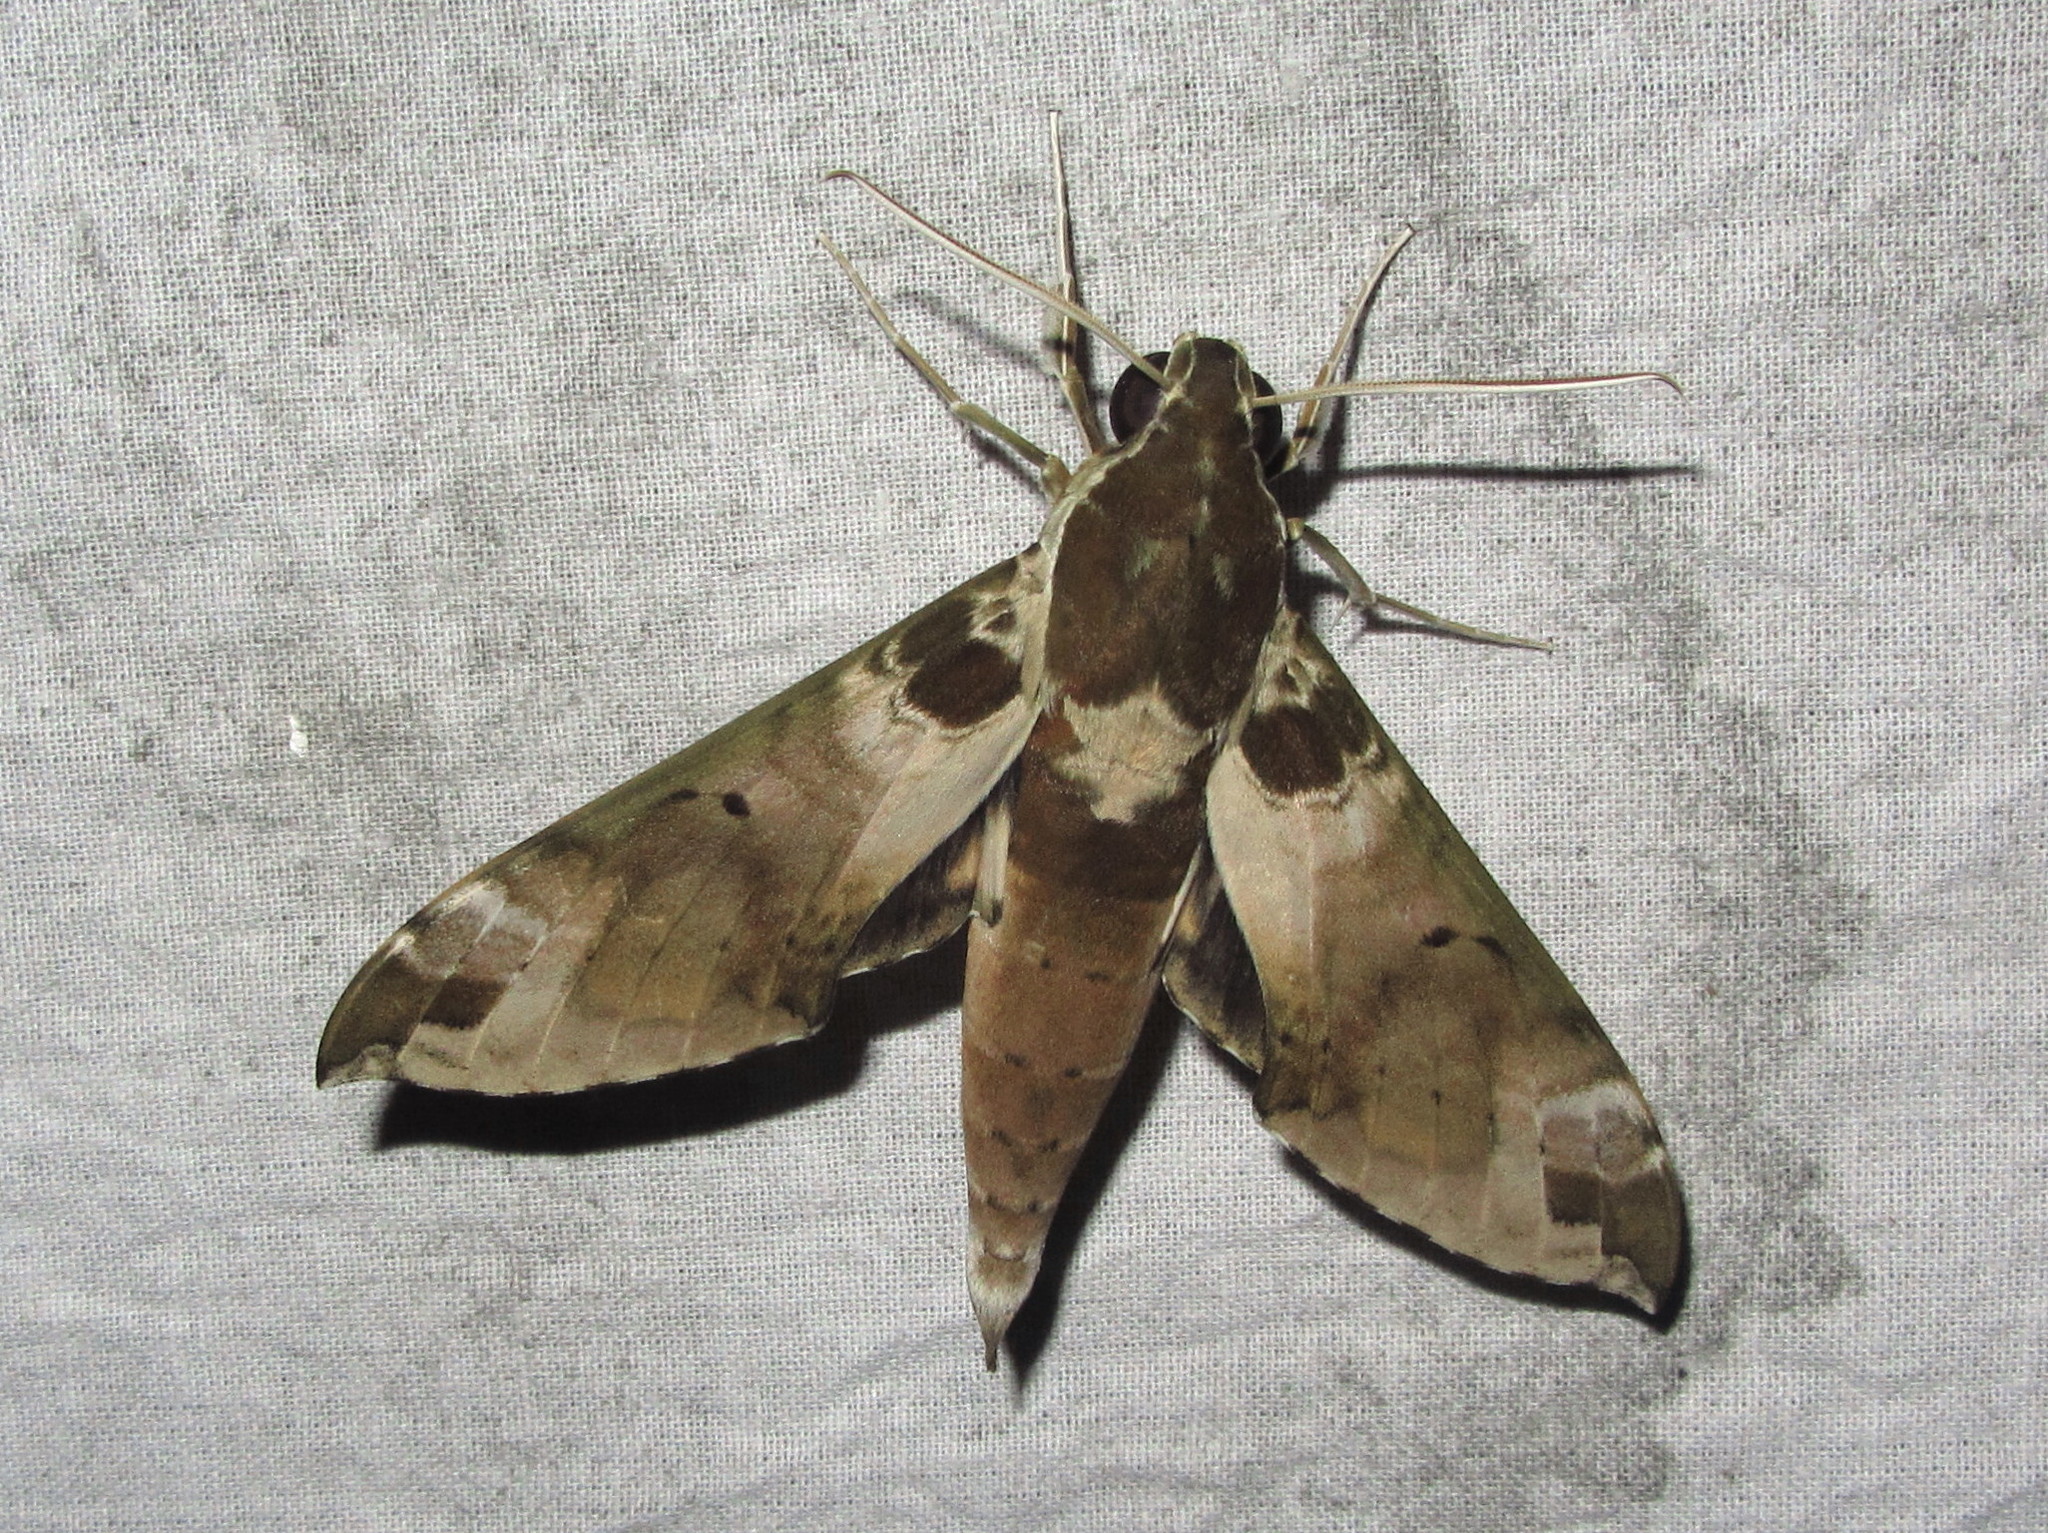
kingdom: Animalia
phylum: Arthropoda
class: Insecta
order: Lepidoptera
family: Sphingidae
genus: Cechenena
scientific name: Cechenena helops
